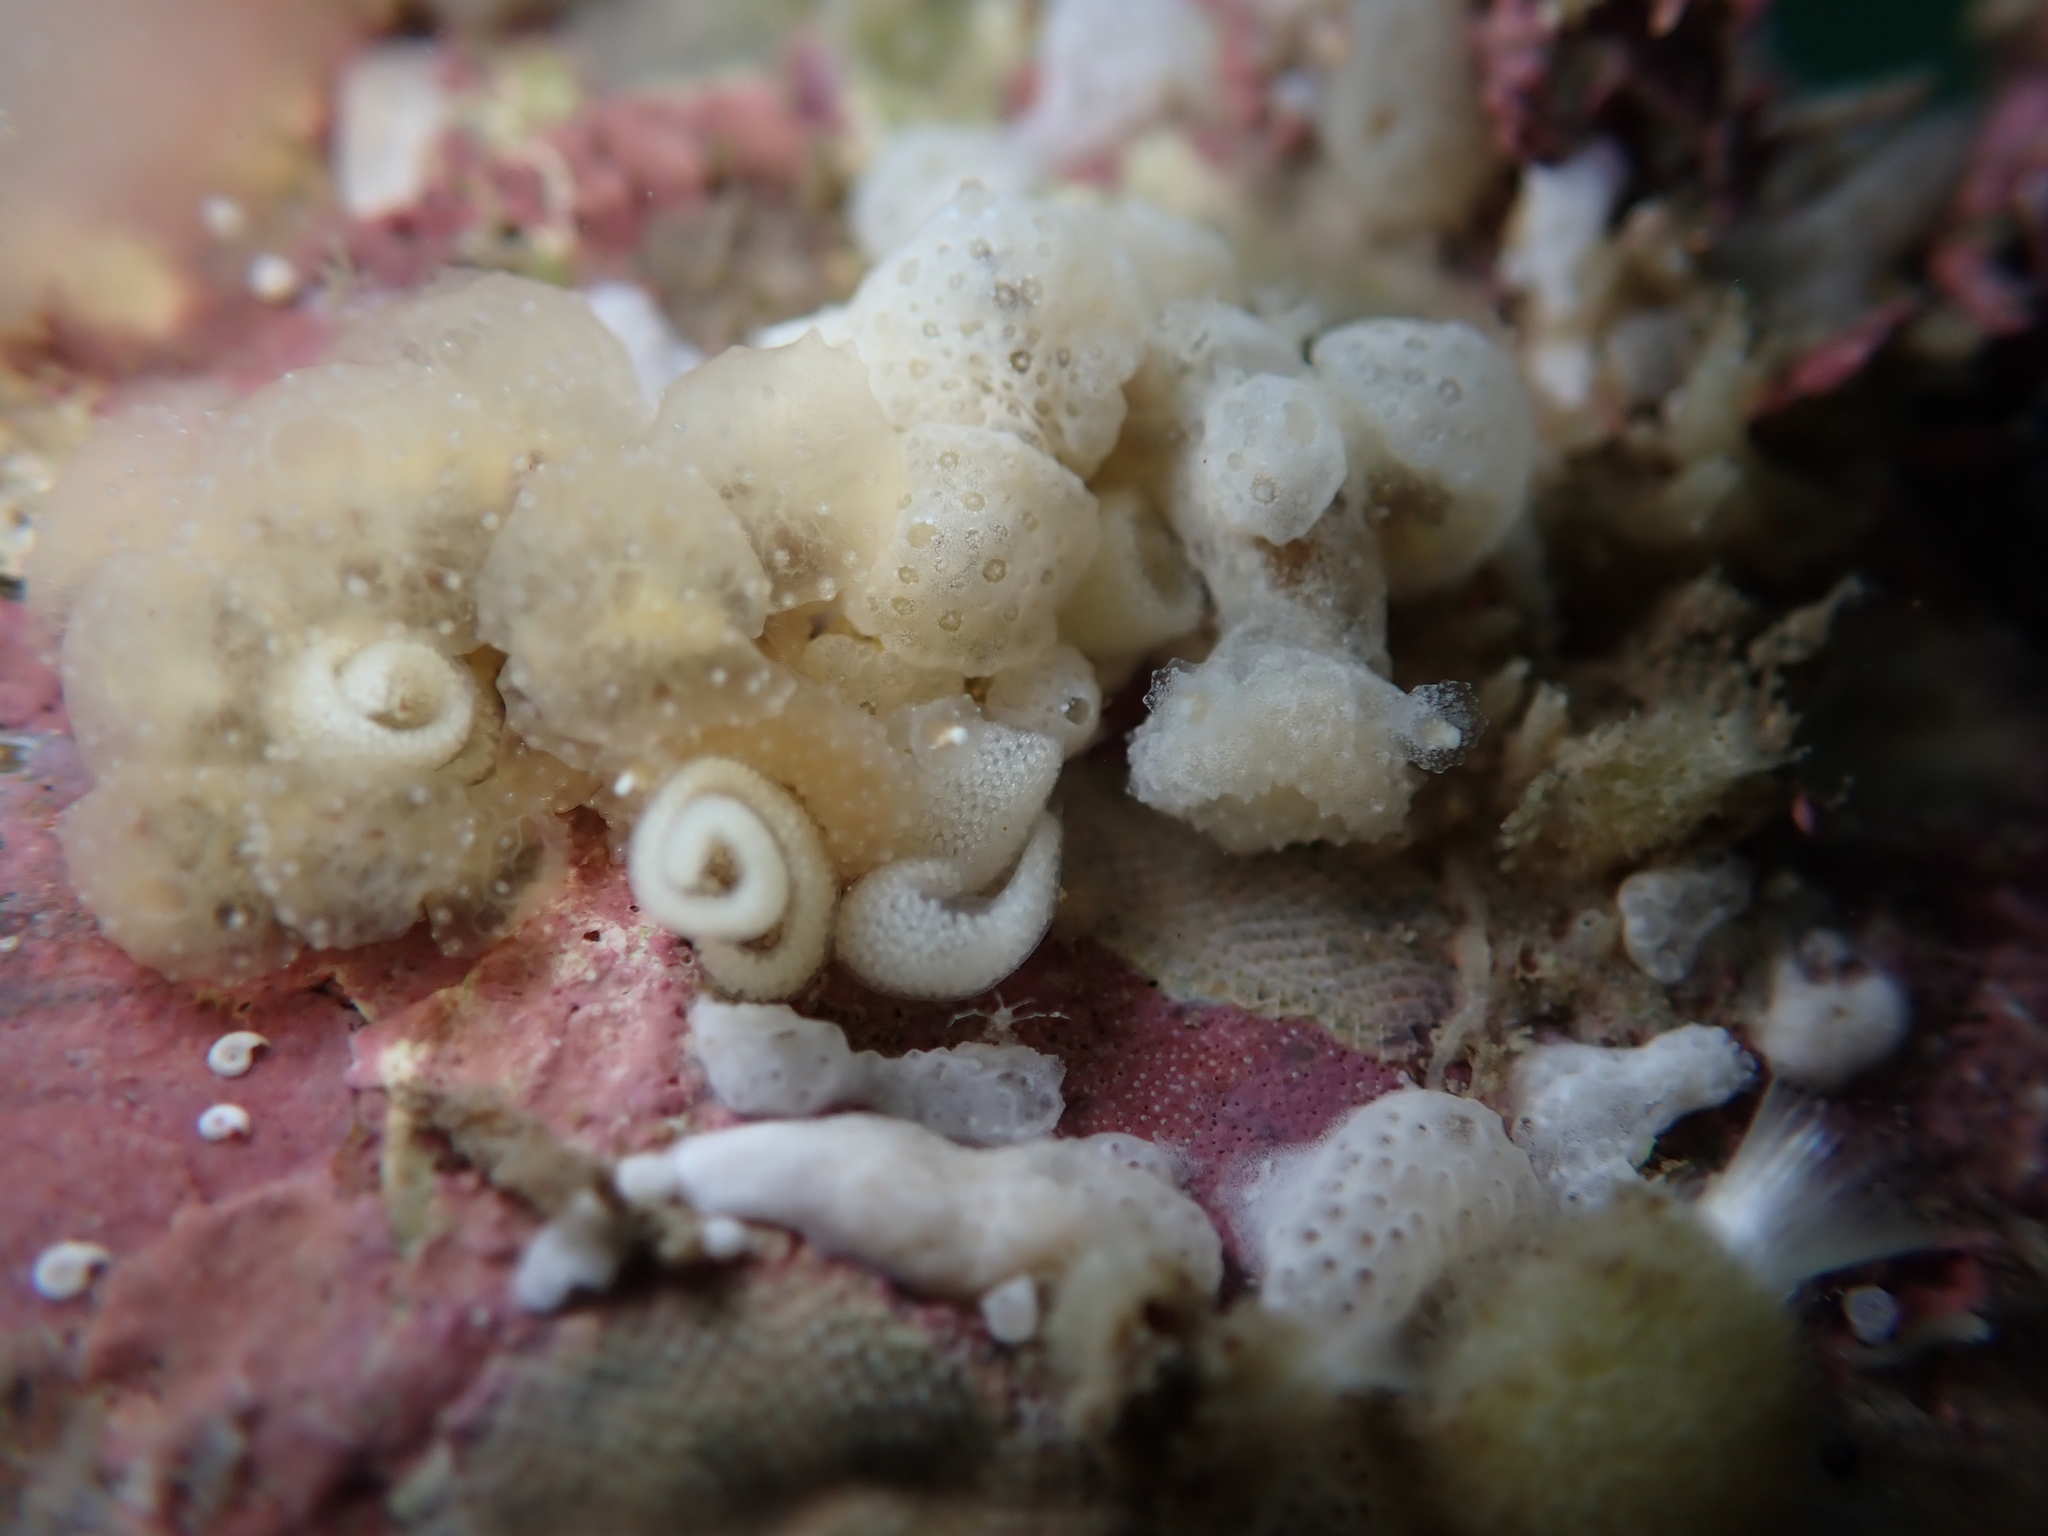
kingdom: Animalia
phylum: Mollusca
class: Gastropoda
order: Nudibranchia
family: Tethydidae
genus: Melibe
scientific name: Melibe
